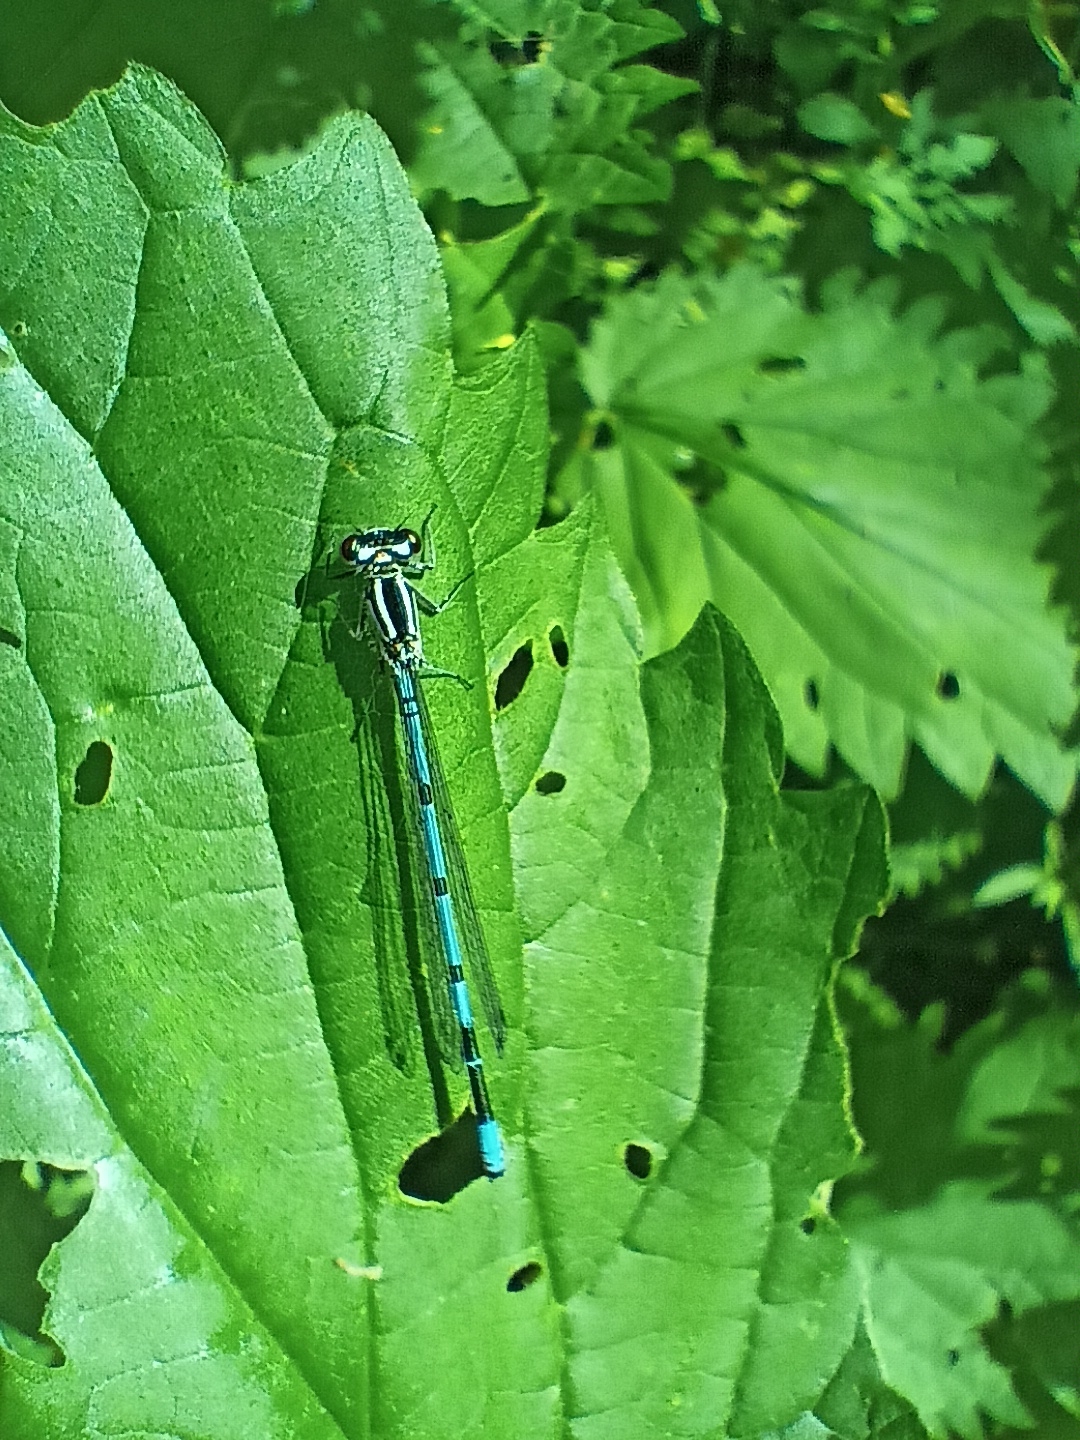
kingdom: Animalia
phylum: Arthropoda
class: Insecta
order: Odonata
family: Coenagrionidae
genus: Coenagrion
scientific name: Coenagrion puella
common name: Azure damselfly
